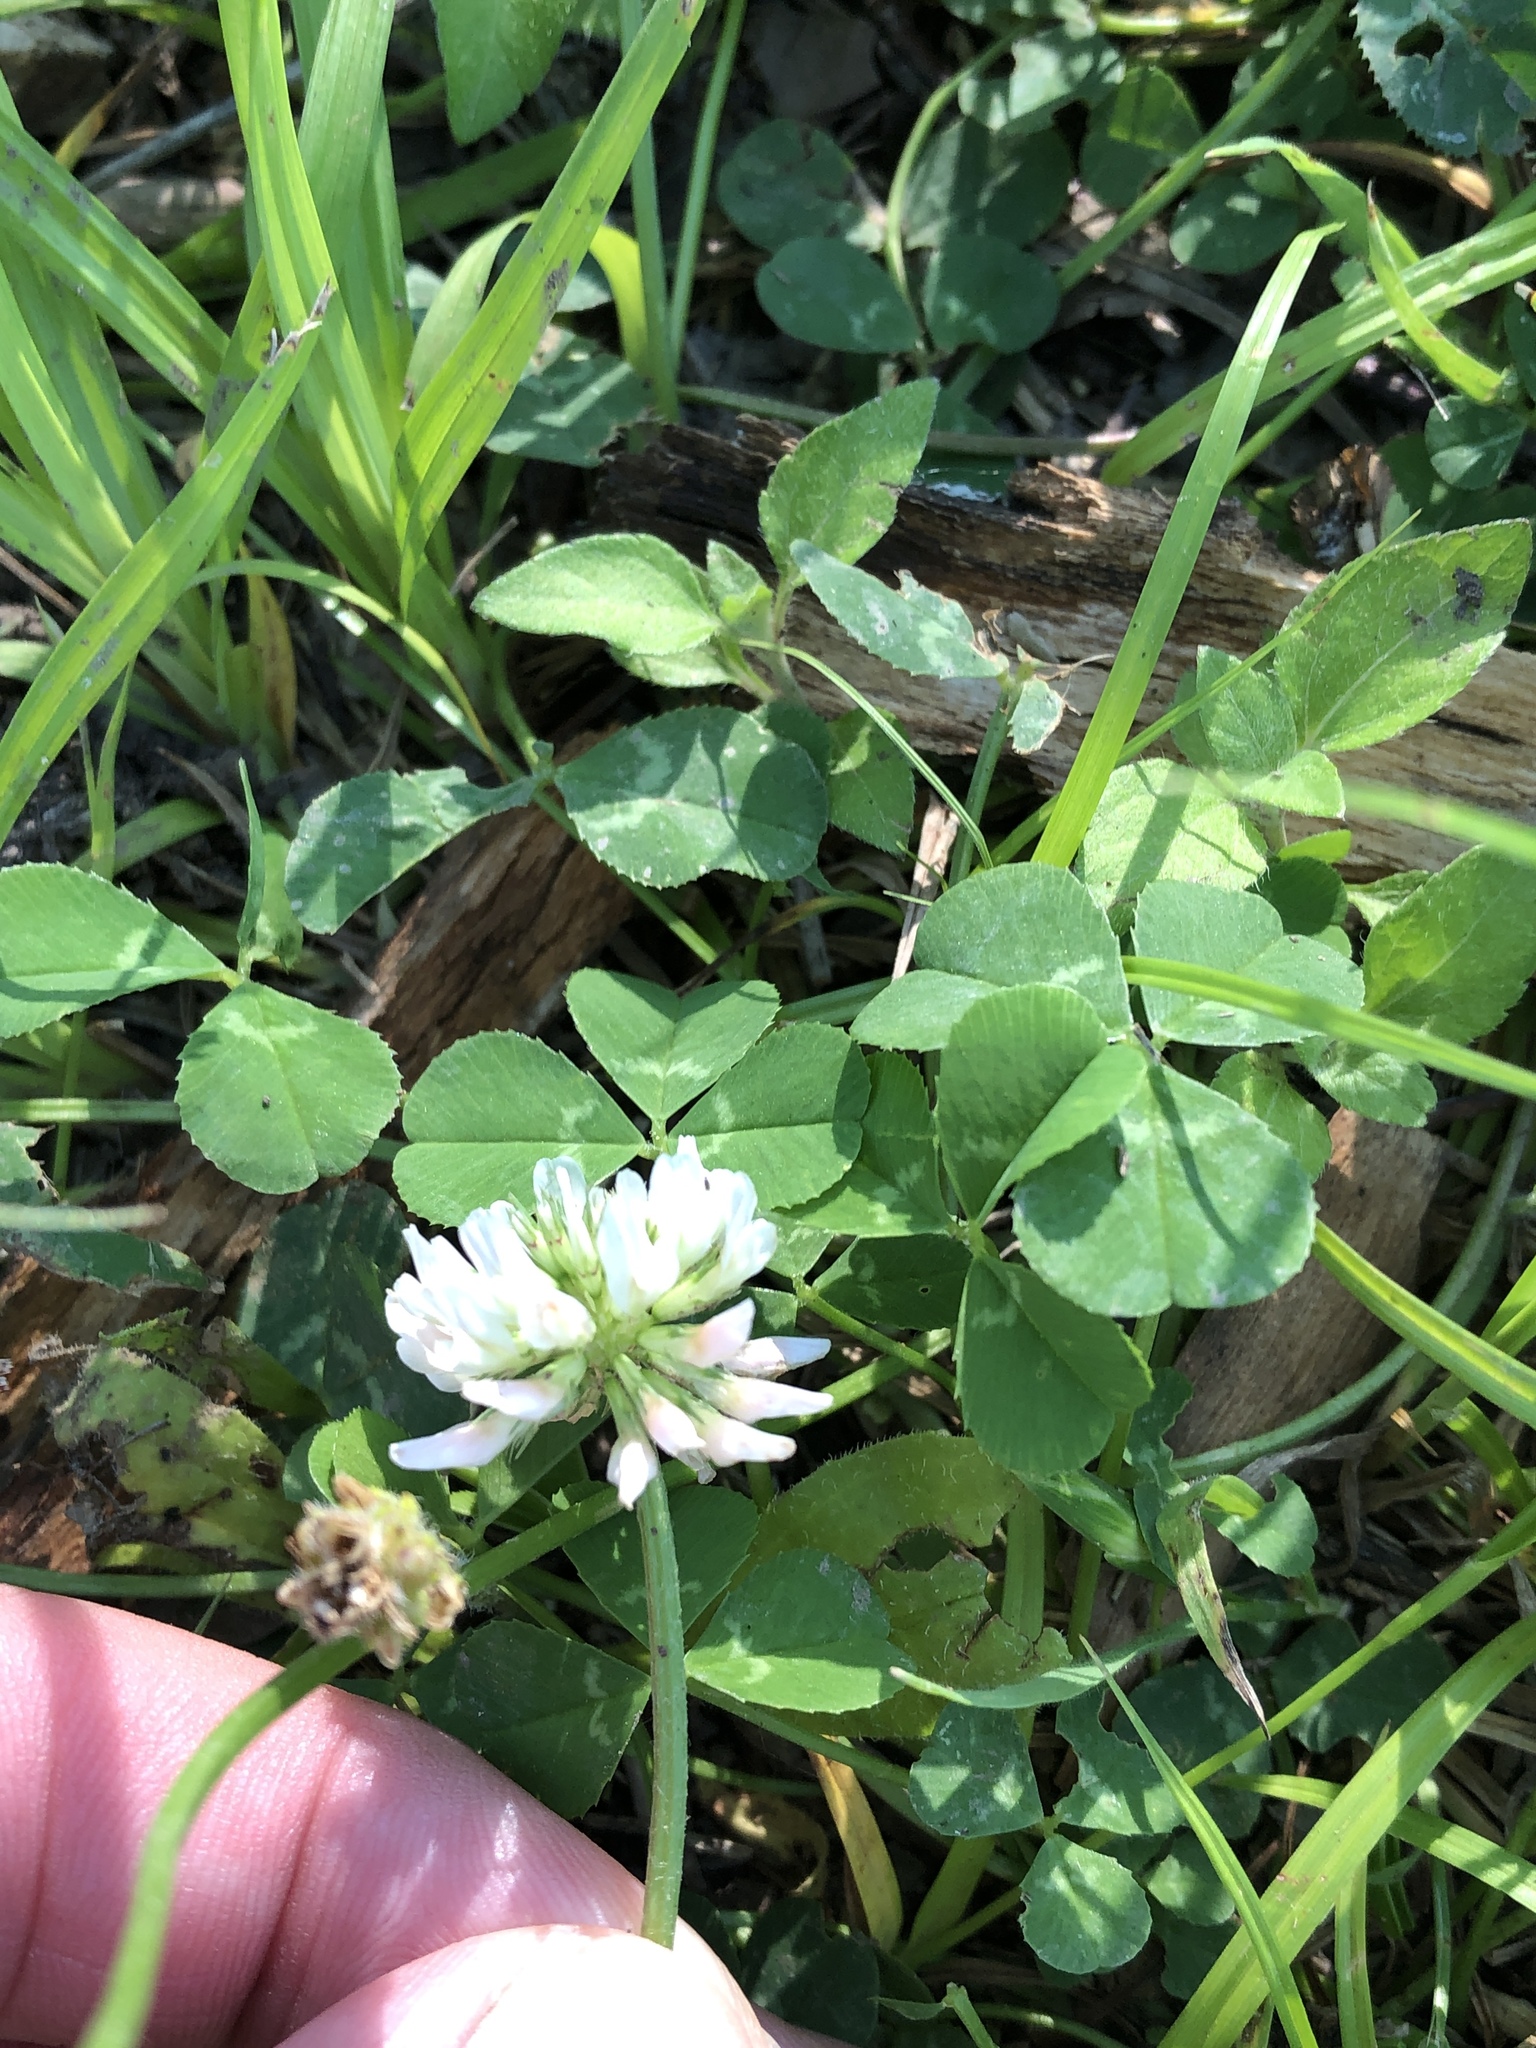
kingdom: Plantae
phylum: Tracheophyta
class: Magnoliopsida
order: Fabales
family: Fabaceae
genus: Trifolium
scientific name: Trifolium repens
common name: White clover
